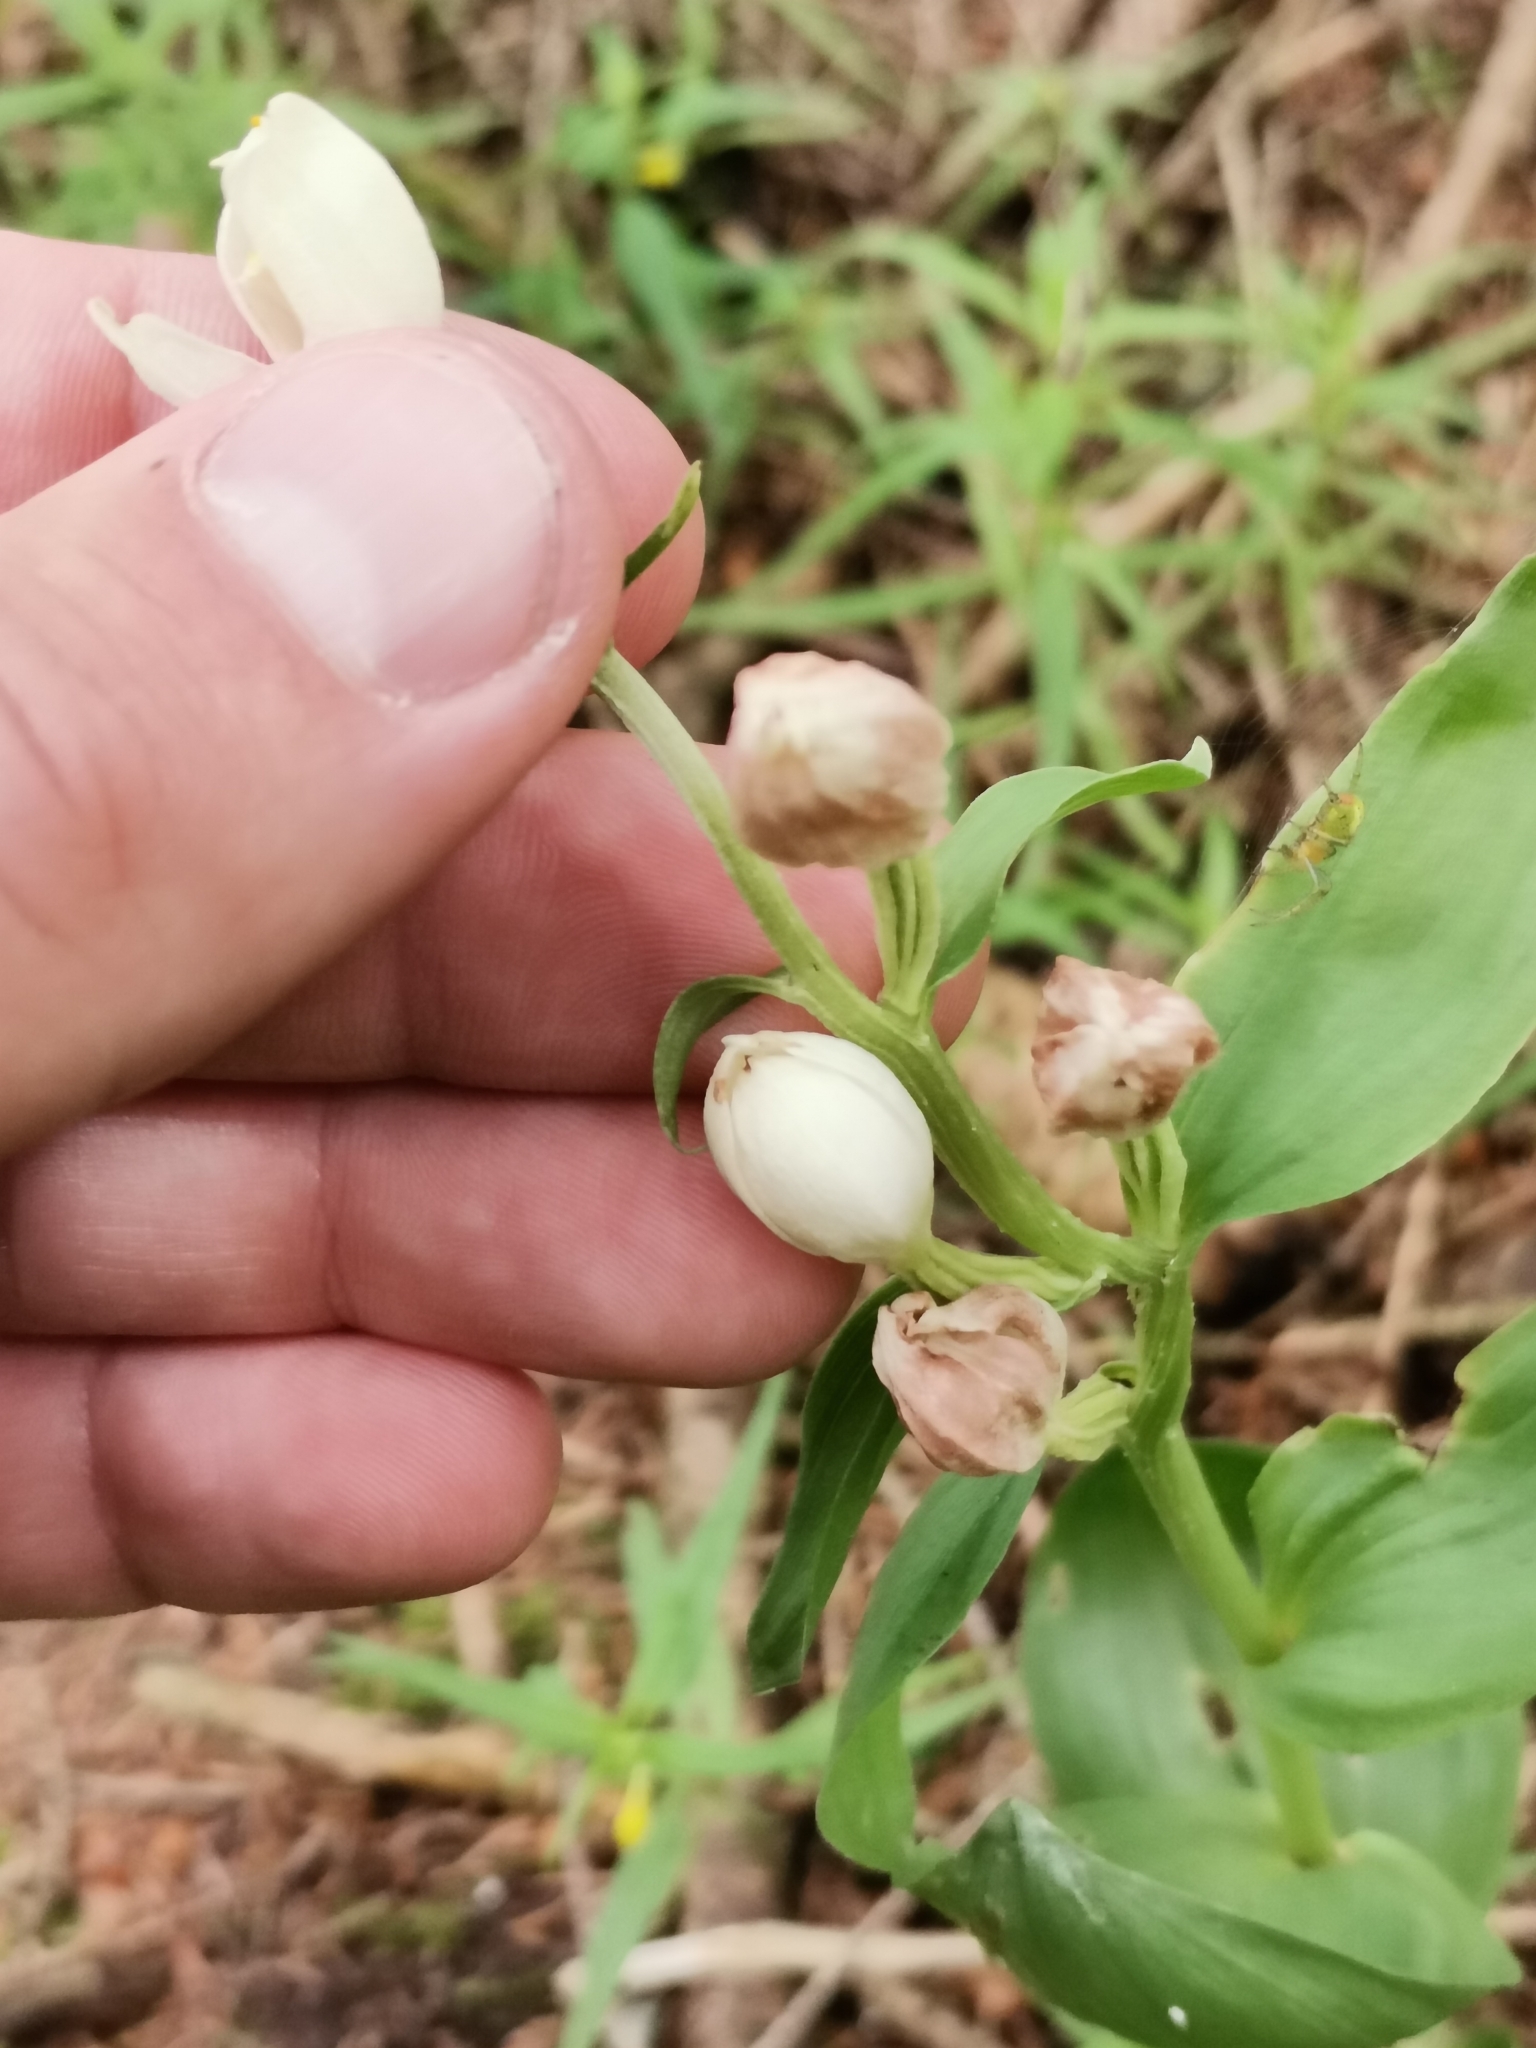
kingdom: Plantae
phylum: Tracheophyta
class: Liliopsida
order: Asparagales
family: Orchidaceae
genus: Cephalanthera
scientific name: Cephalanthera damasonium
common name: White helleborine
